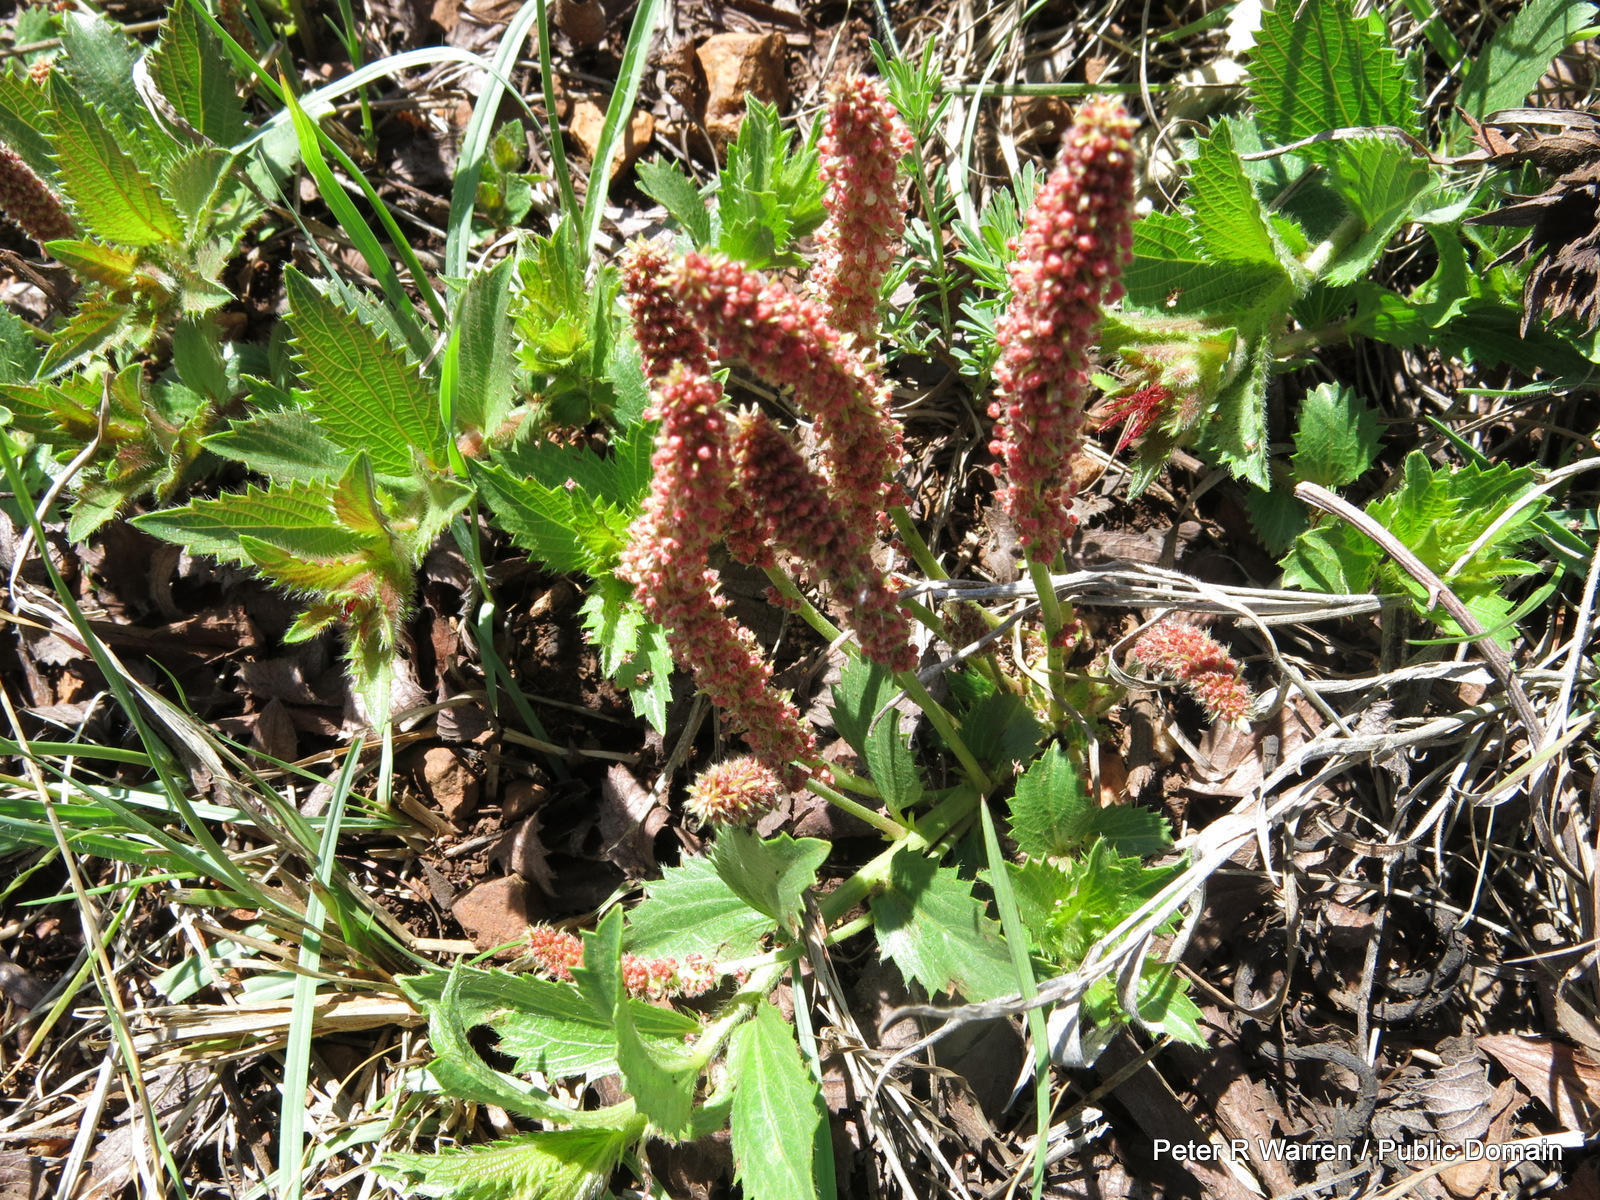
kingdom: Plantae
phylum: Tracheophyta
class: Magnoliopsida
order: Malpighiales
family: Euphorbiaceae
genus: Acalypha
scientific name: Acalypha angustata
